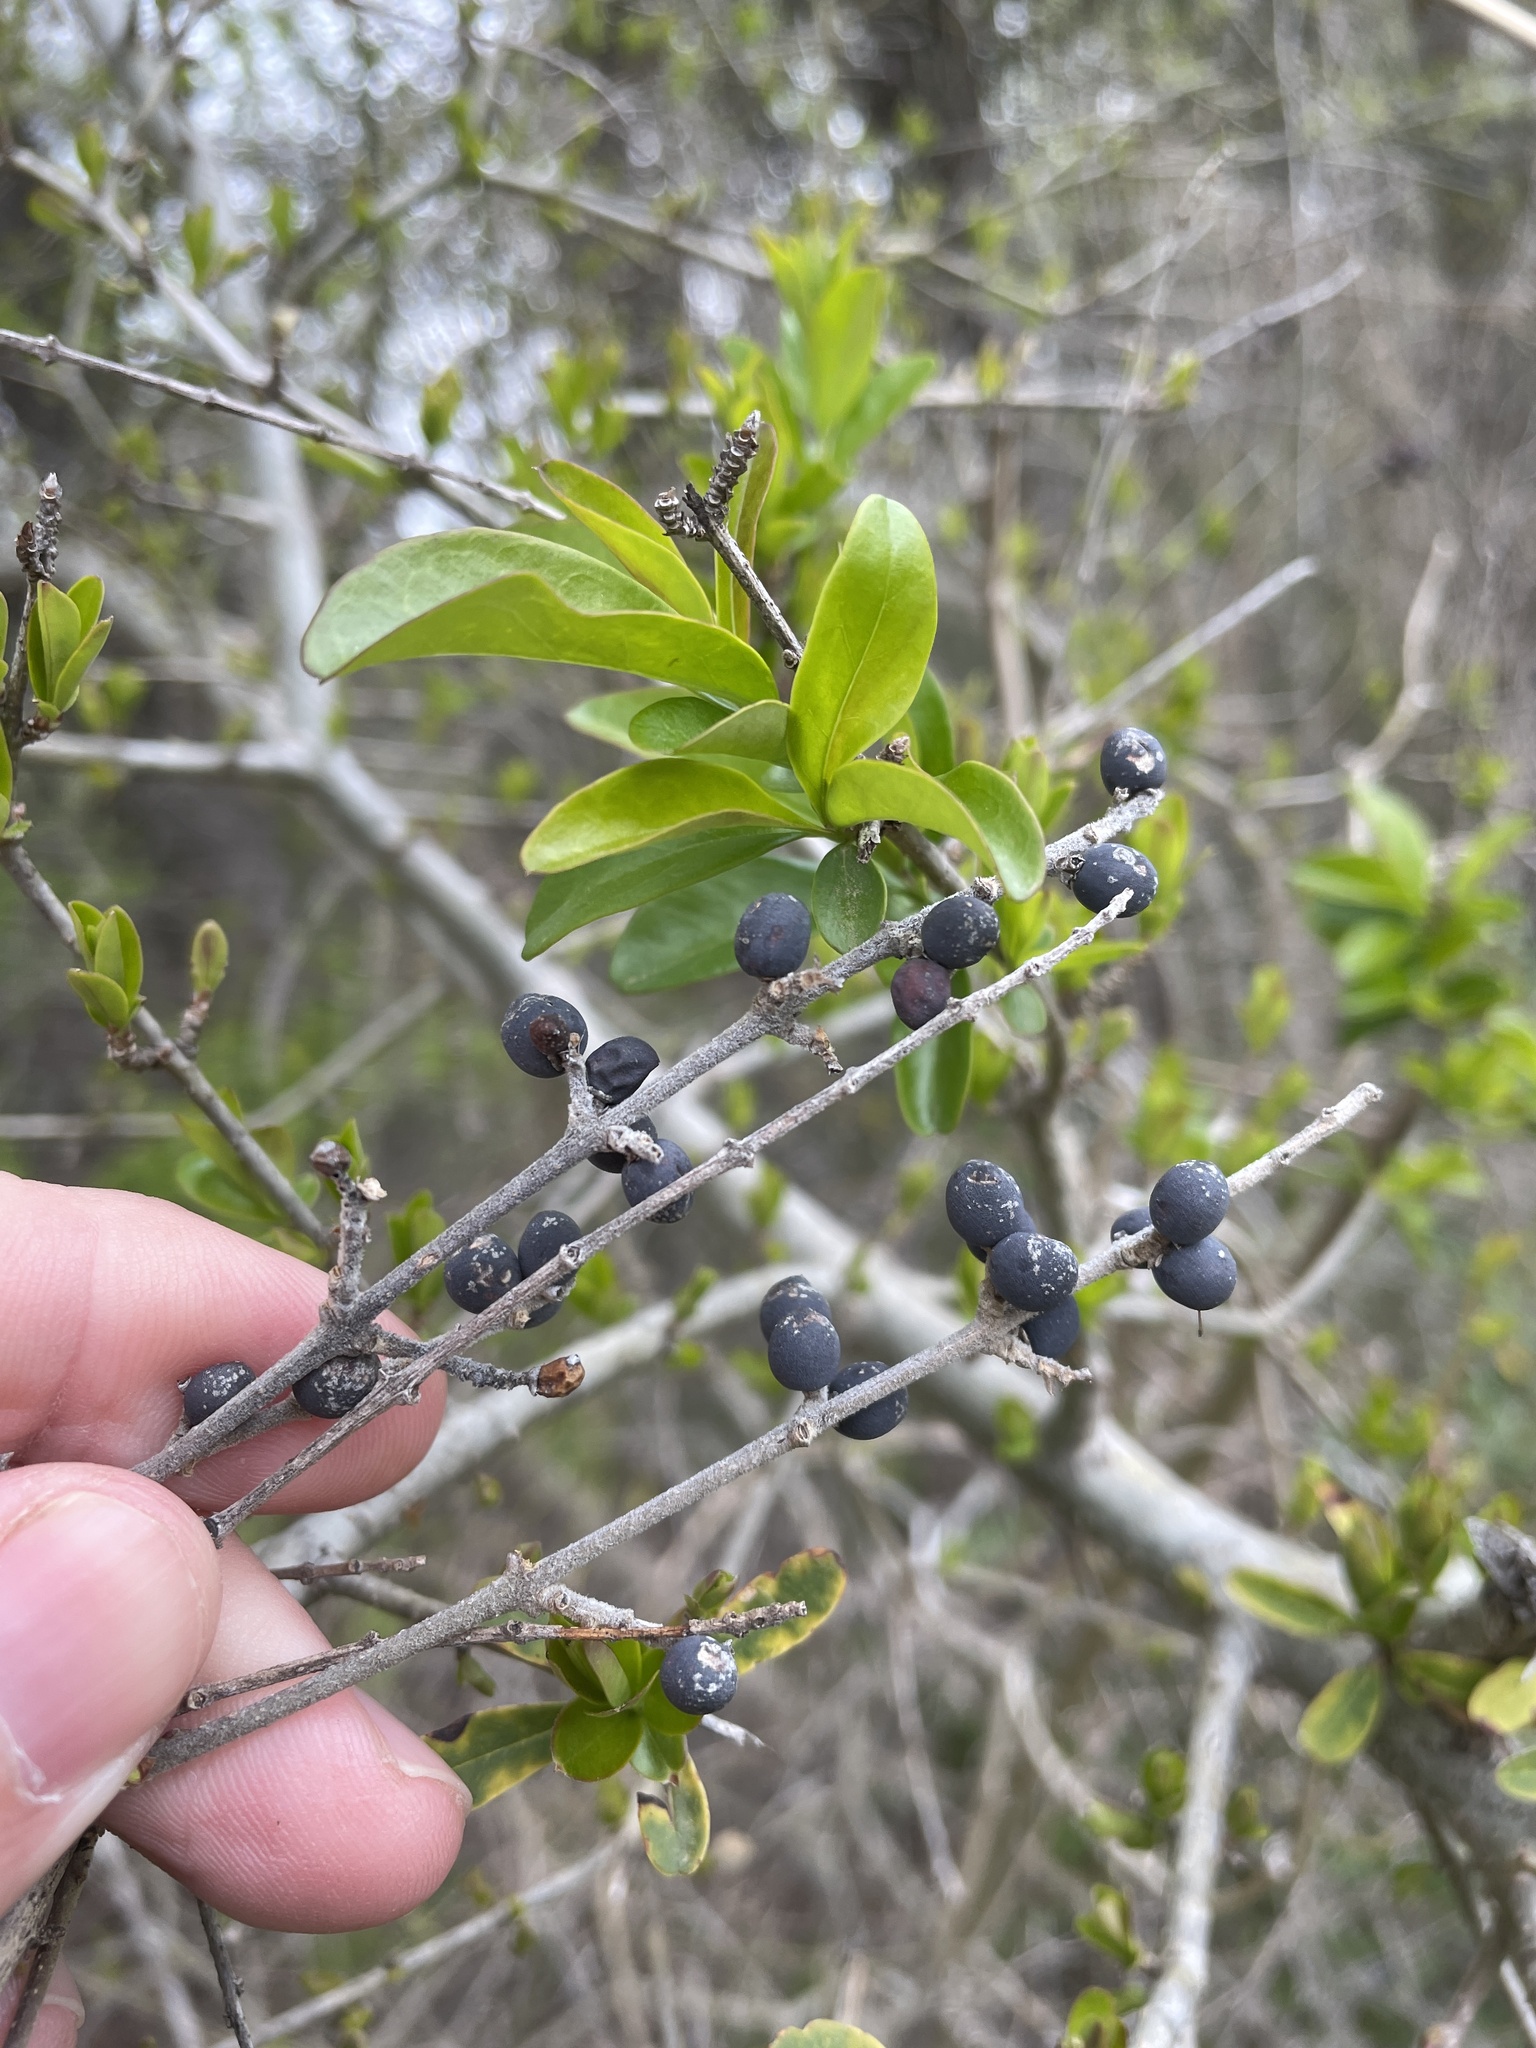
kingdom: Plantae
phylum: Tracheophyta
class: Magnoliopsida
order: Lamiales
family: Oleaceae
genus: Ligustrum
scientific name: Ligustrum quihoui
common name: Waxyleaf privet
